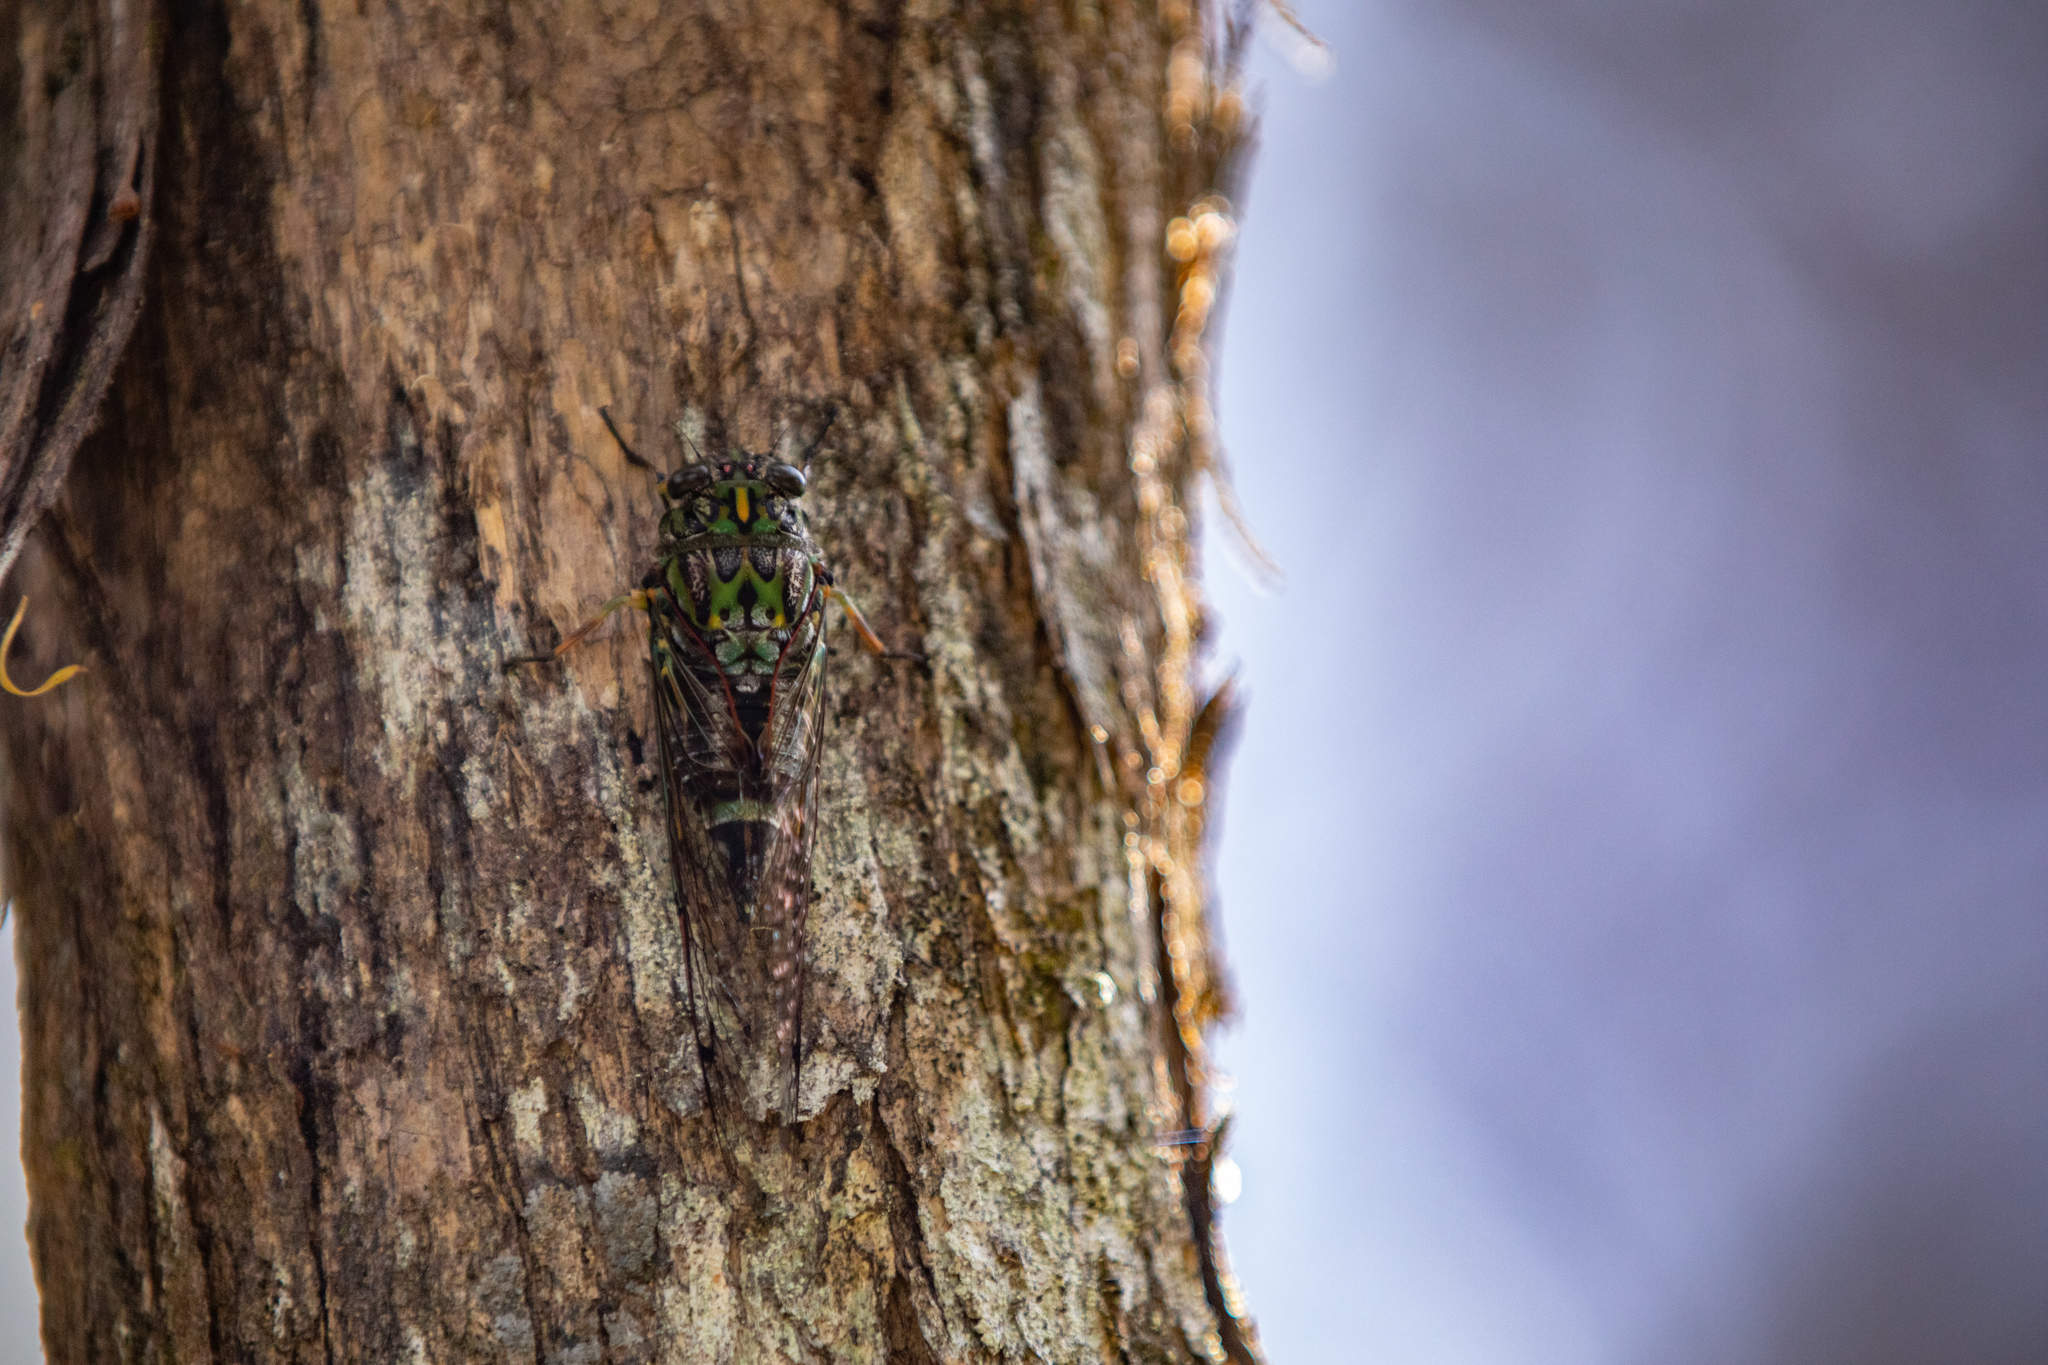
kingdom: Animalia
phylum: Arthropoda
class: Insecta
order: Hemiptera
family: Cicadidae
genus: Amphipsalta
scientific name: Amphipsalta zelandica
